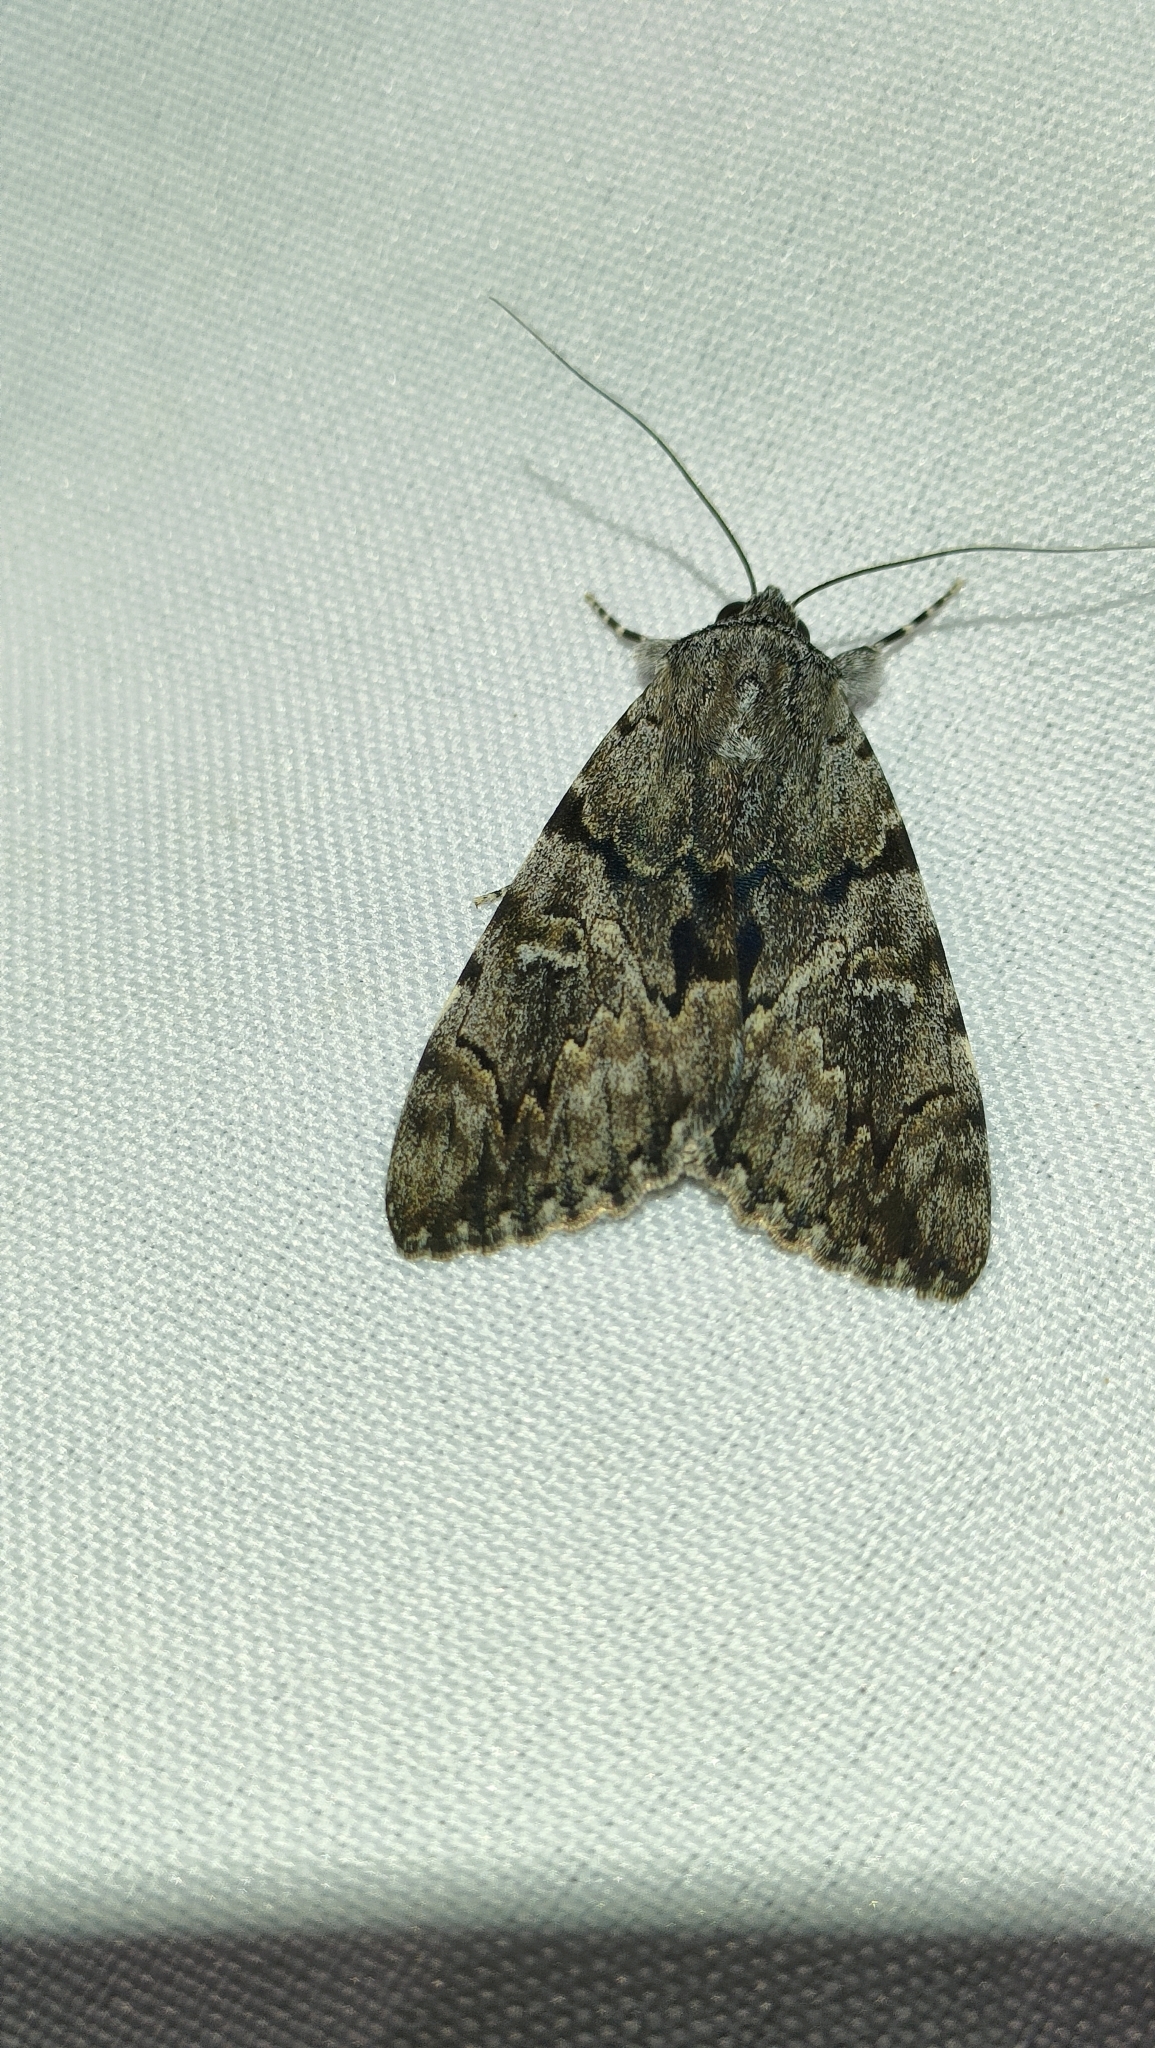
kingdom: Animalia
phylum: Arthropoda
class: Insecta
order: Lepidoptera
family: Erebidae
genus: Catocala
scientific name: Catocala conversa
